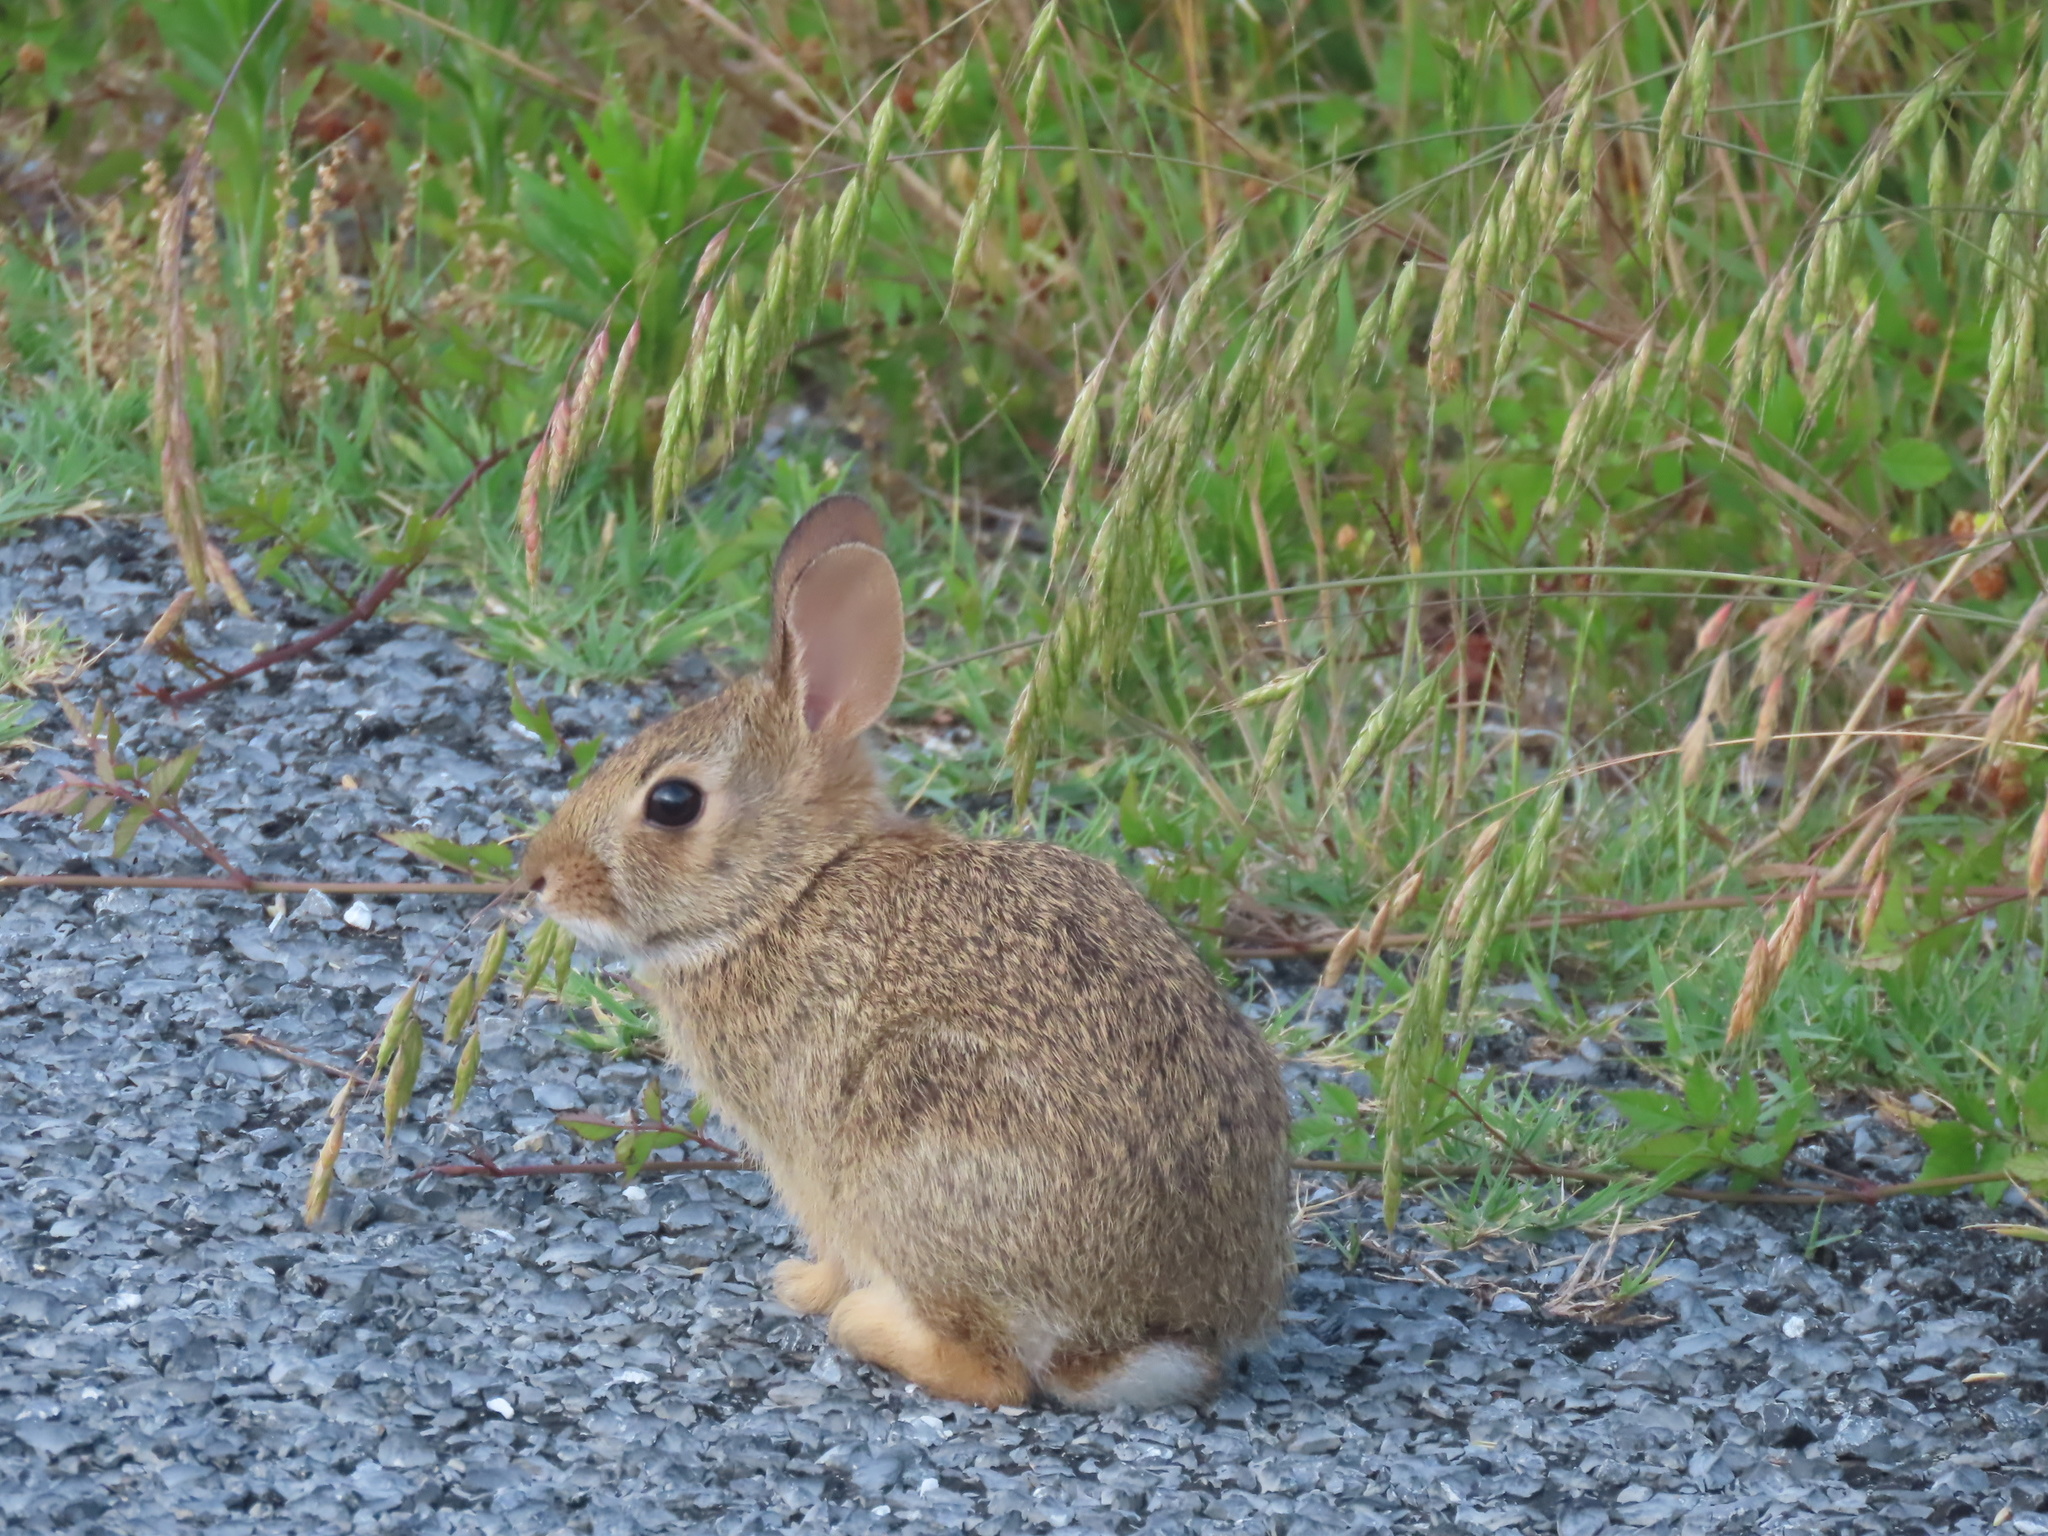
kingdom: Animalia
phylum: Chordata
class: Mammalia
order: Lagomorpha
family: Leporidae
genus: Sylvilagus
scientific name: Sylvilagus floridanus
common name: Eastern cottontail
